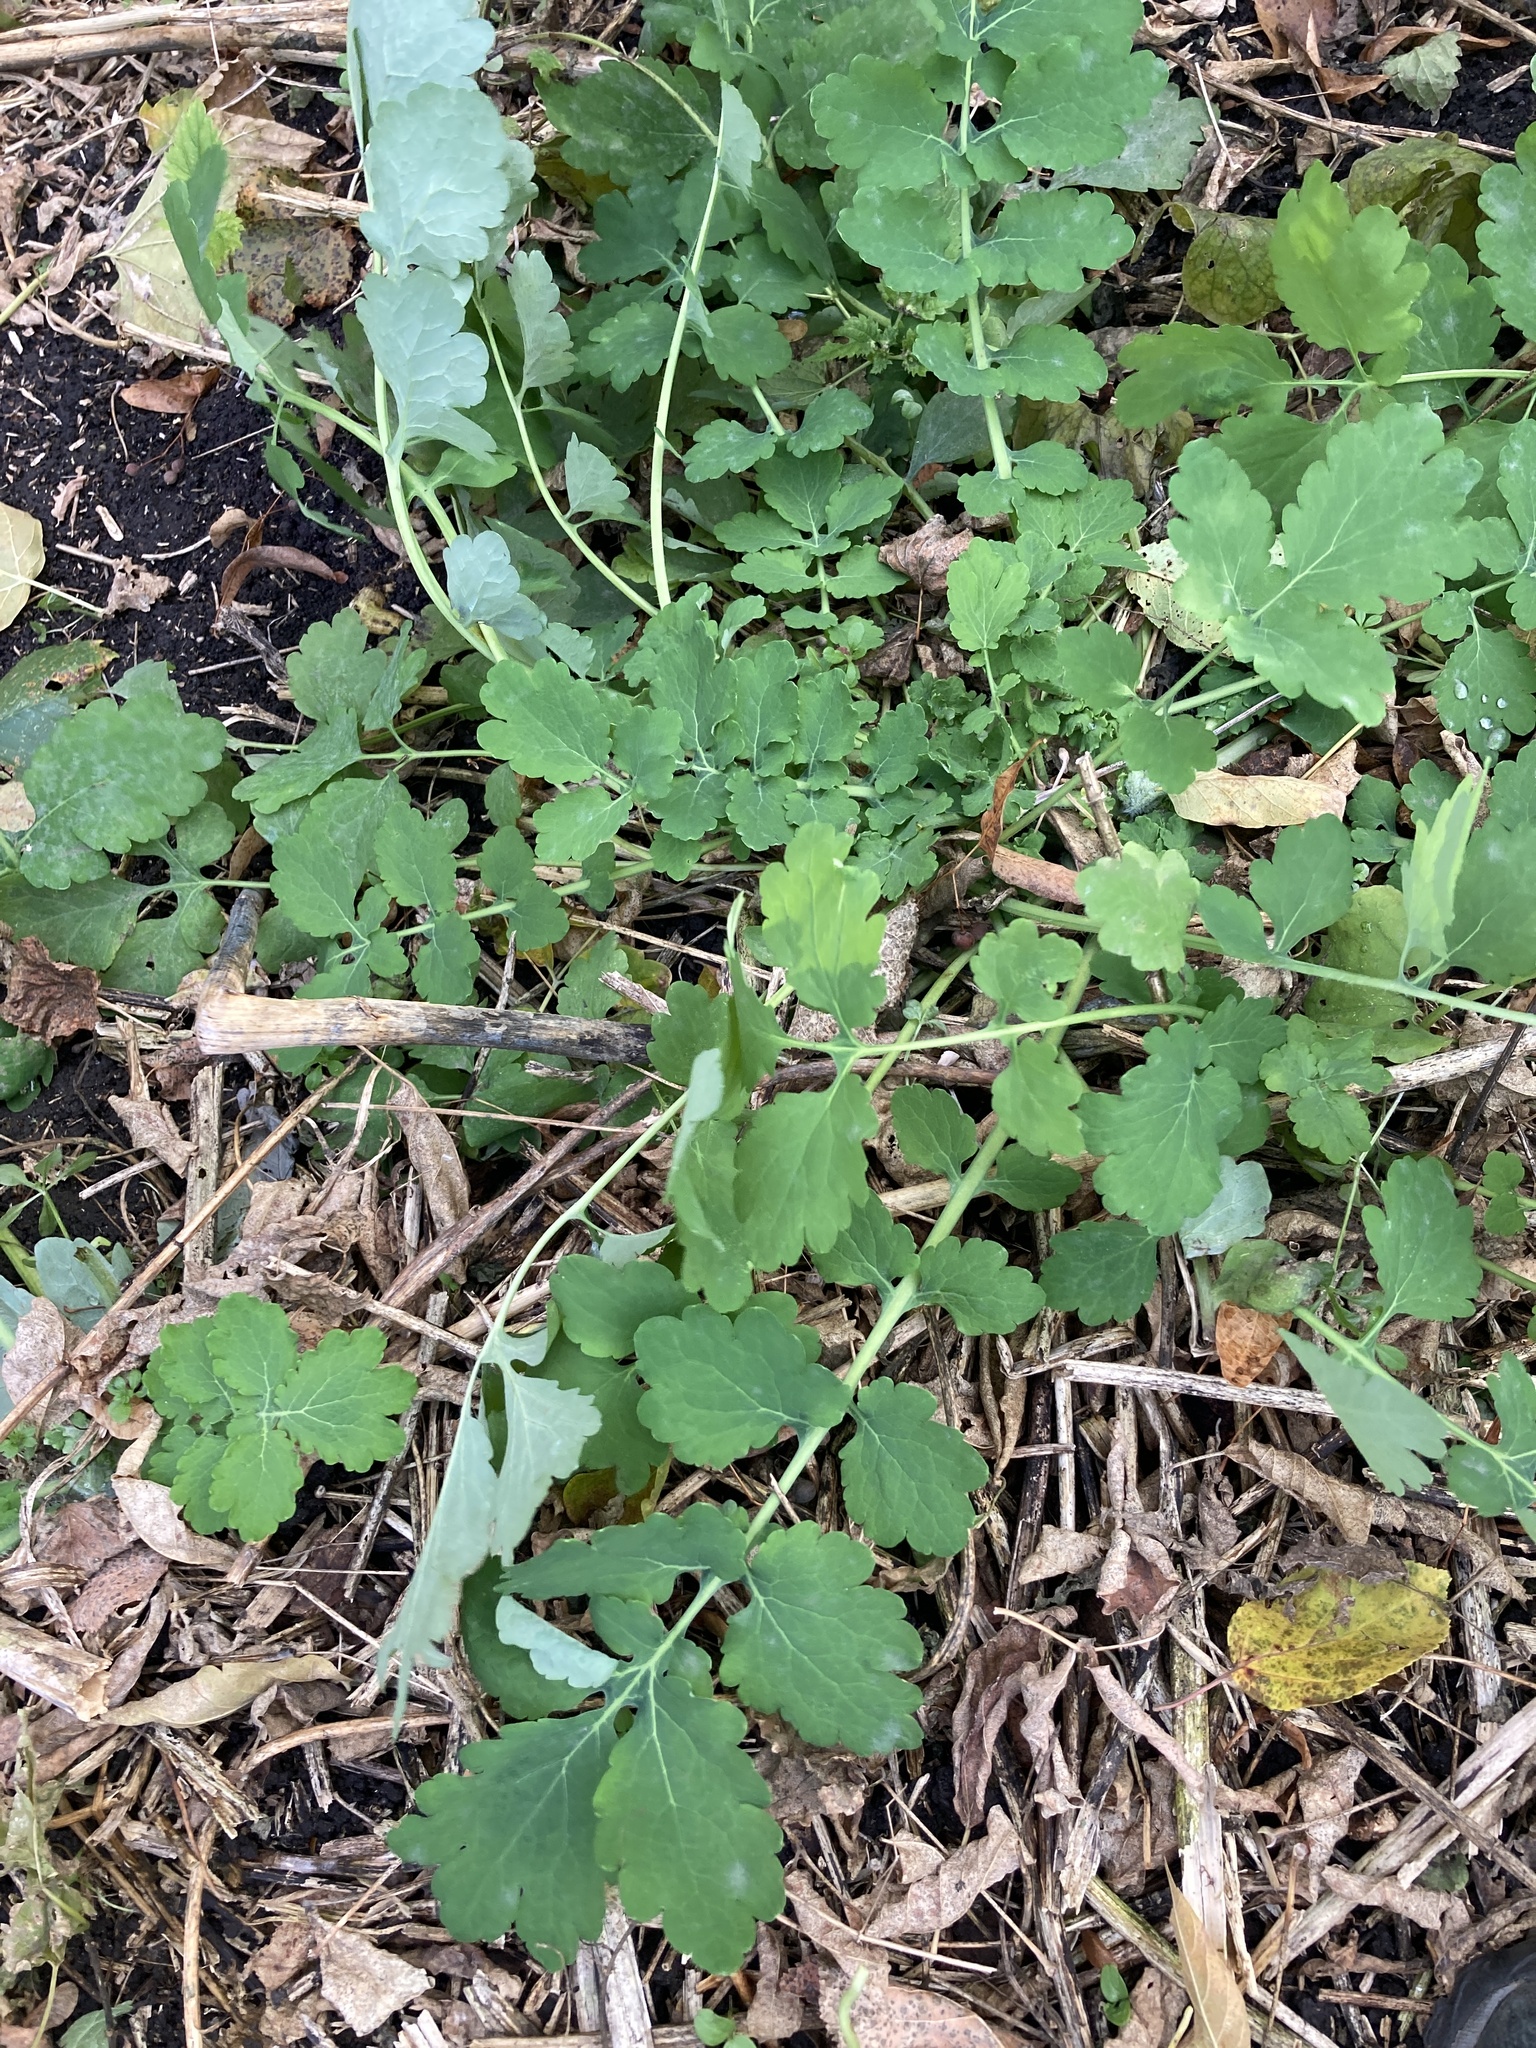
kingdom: Plantae
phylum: Tracheophyta
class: Magnoliopsida
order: Ranunculales
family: Papaveraceae
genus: Chelidonium
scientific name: Chelidonium majus
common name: Greater celandine
